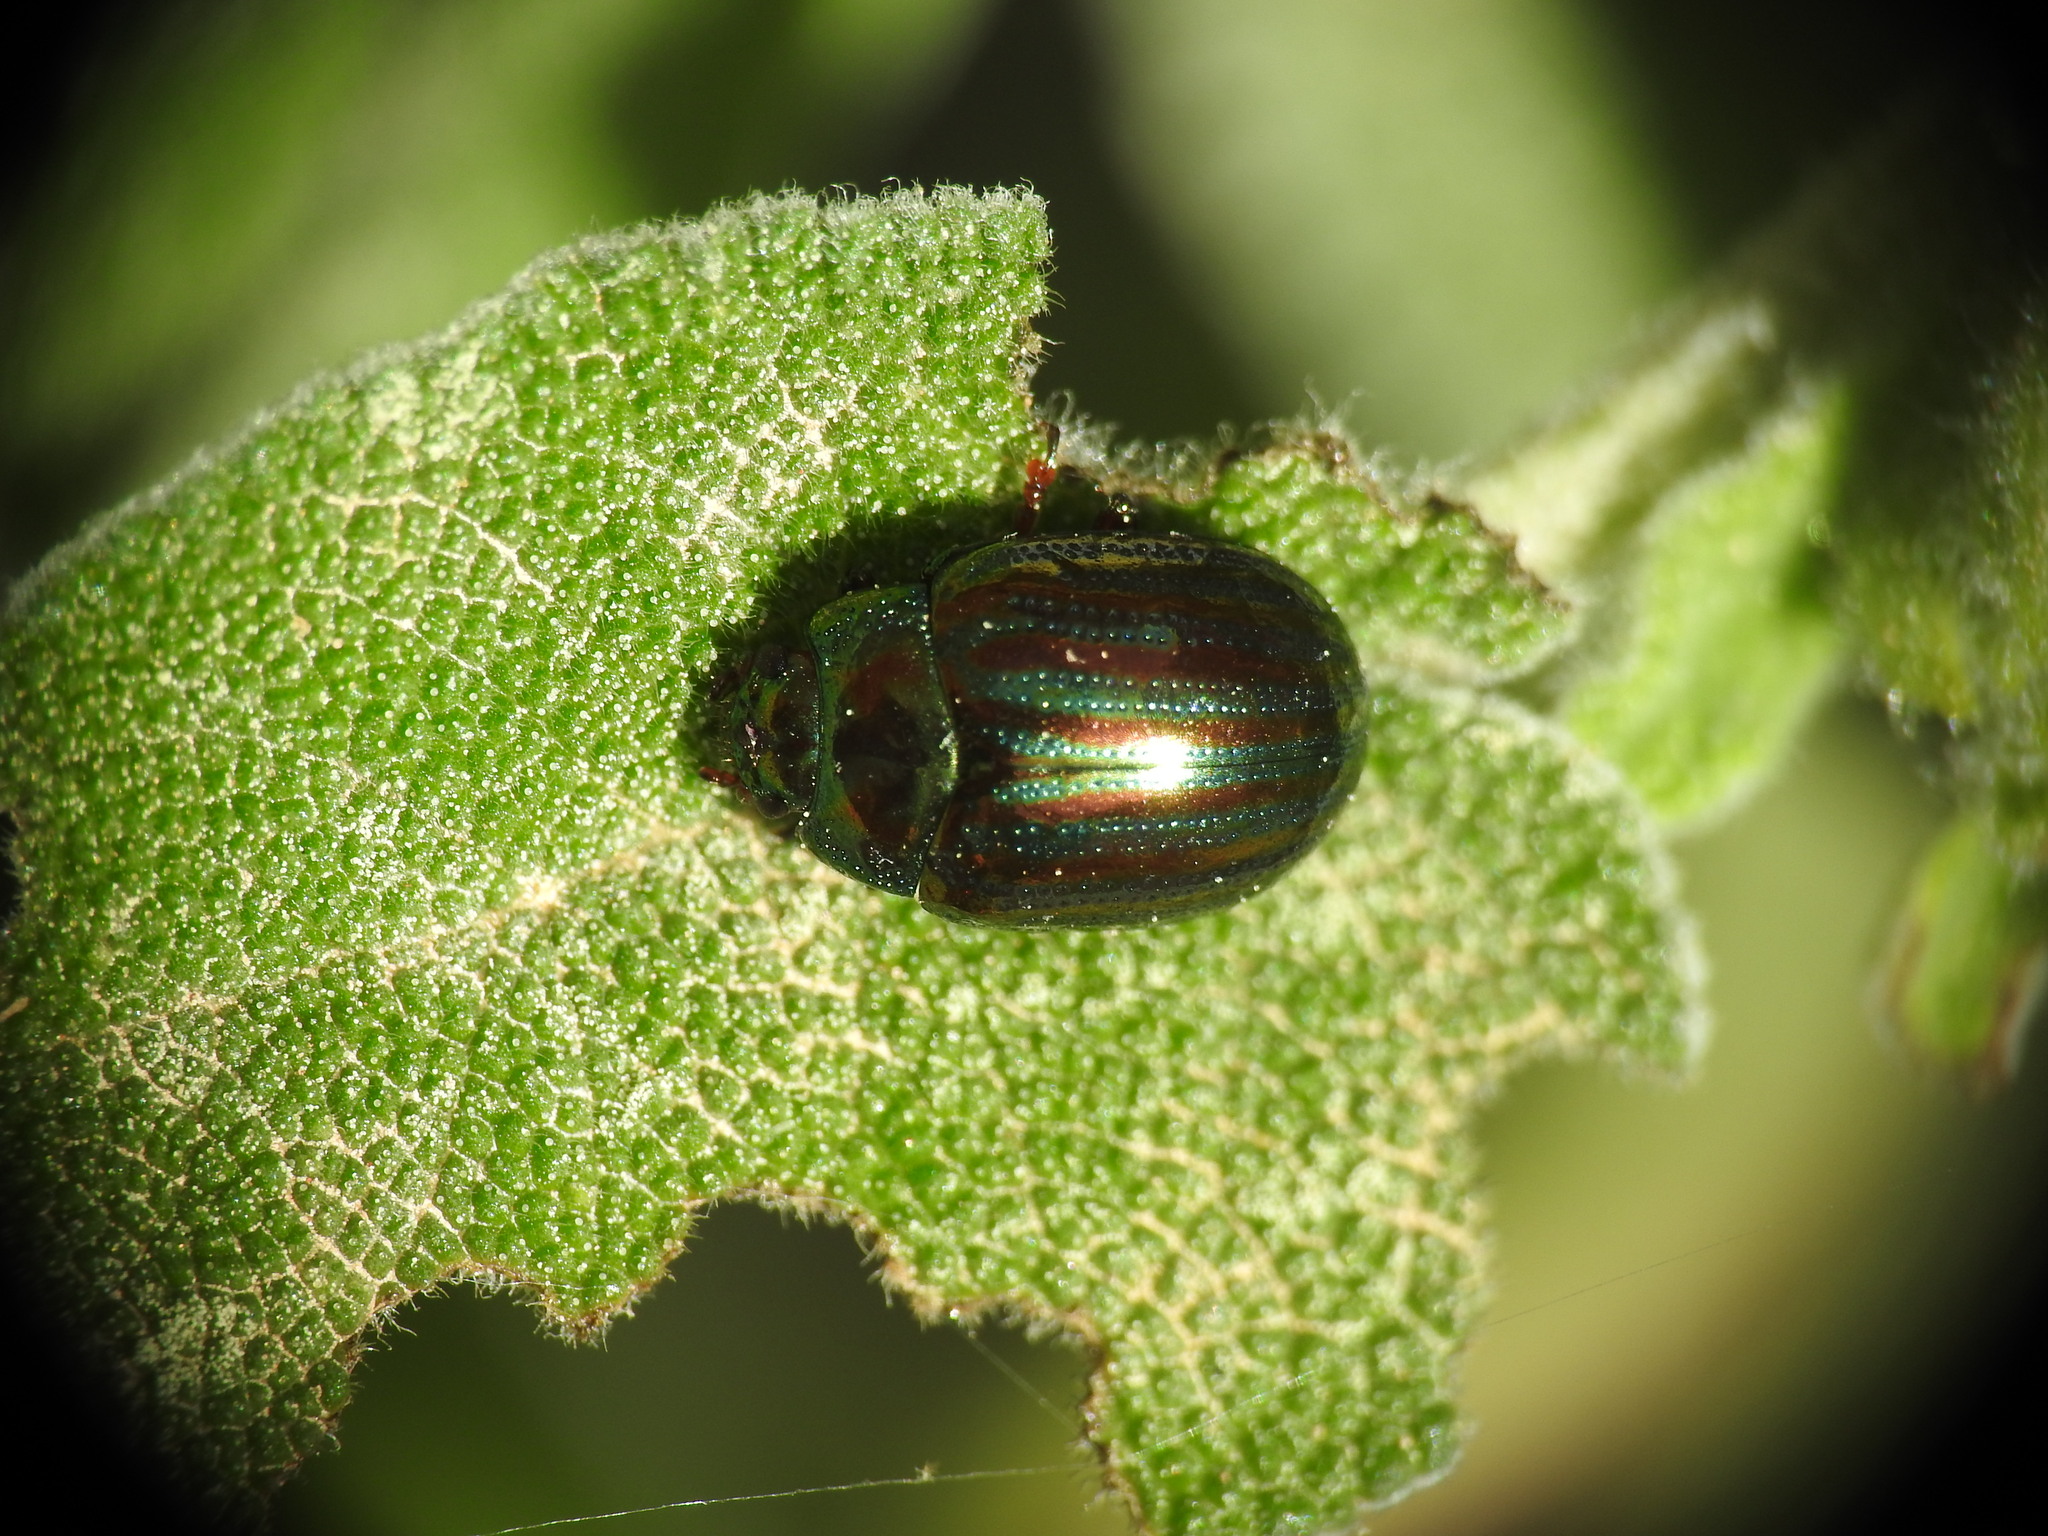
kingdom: Animalia
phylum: Arthropoda
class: Insecta
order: Coleoptera
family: Chrysomelidae
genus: Chrysolina
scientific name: Chrysolina americana
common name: Rosemary beetle
